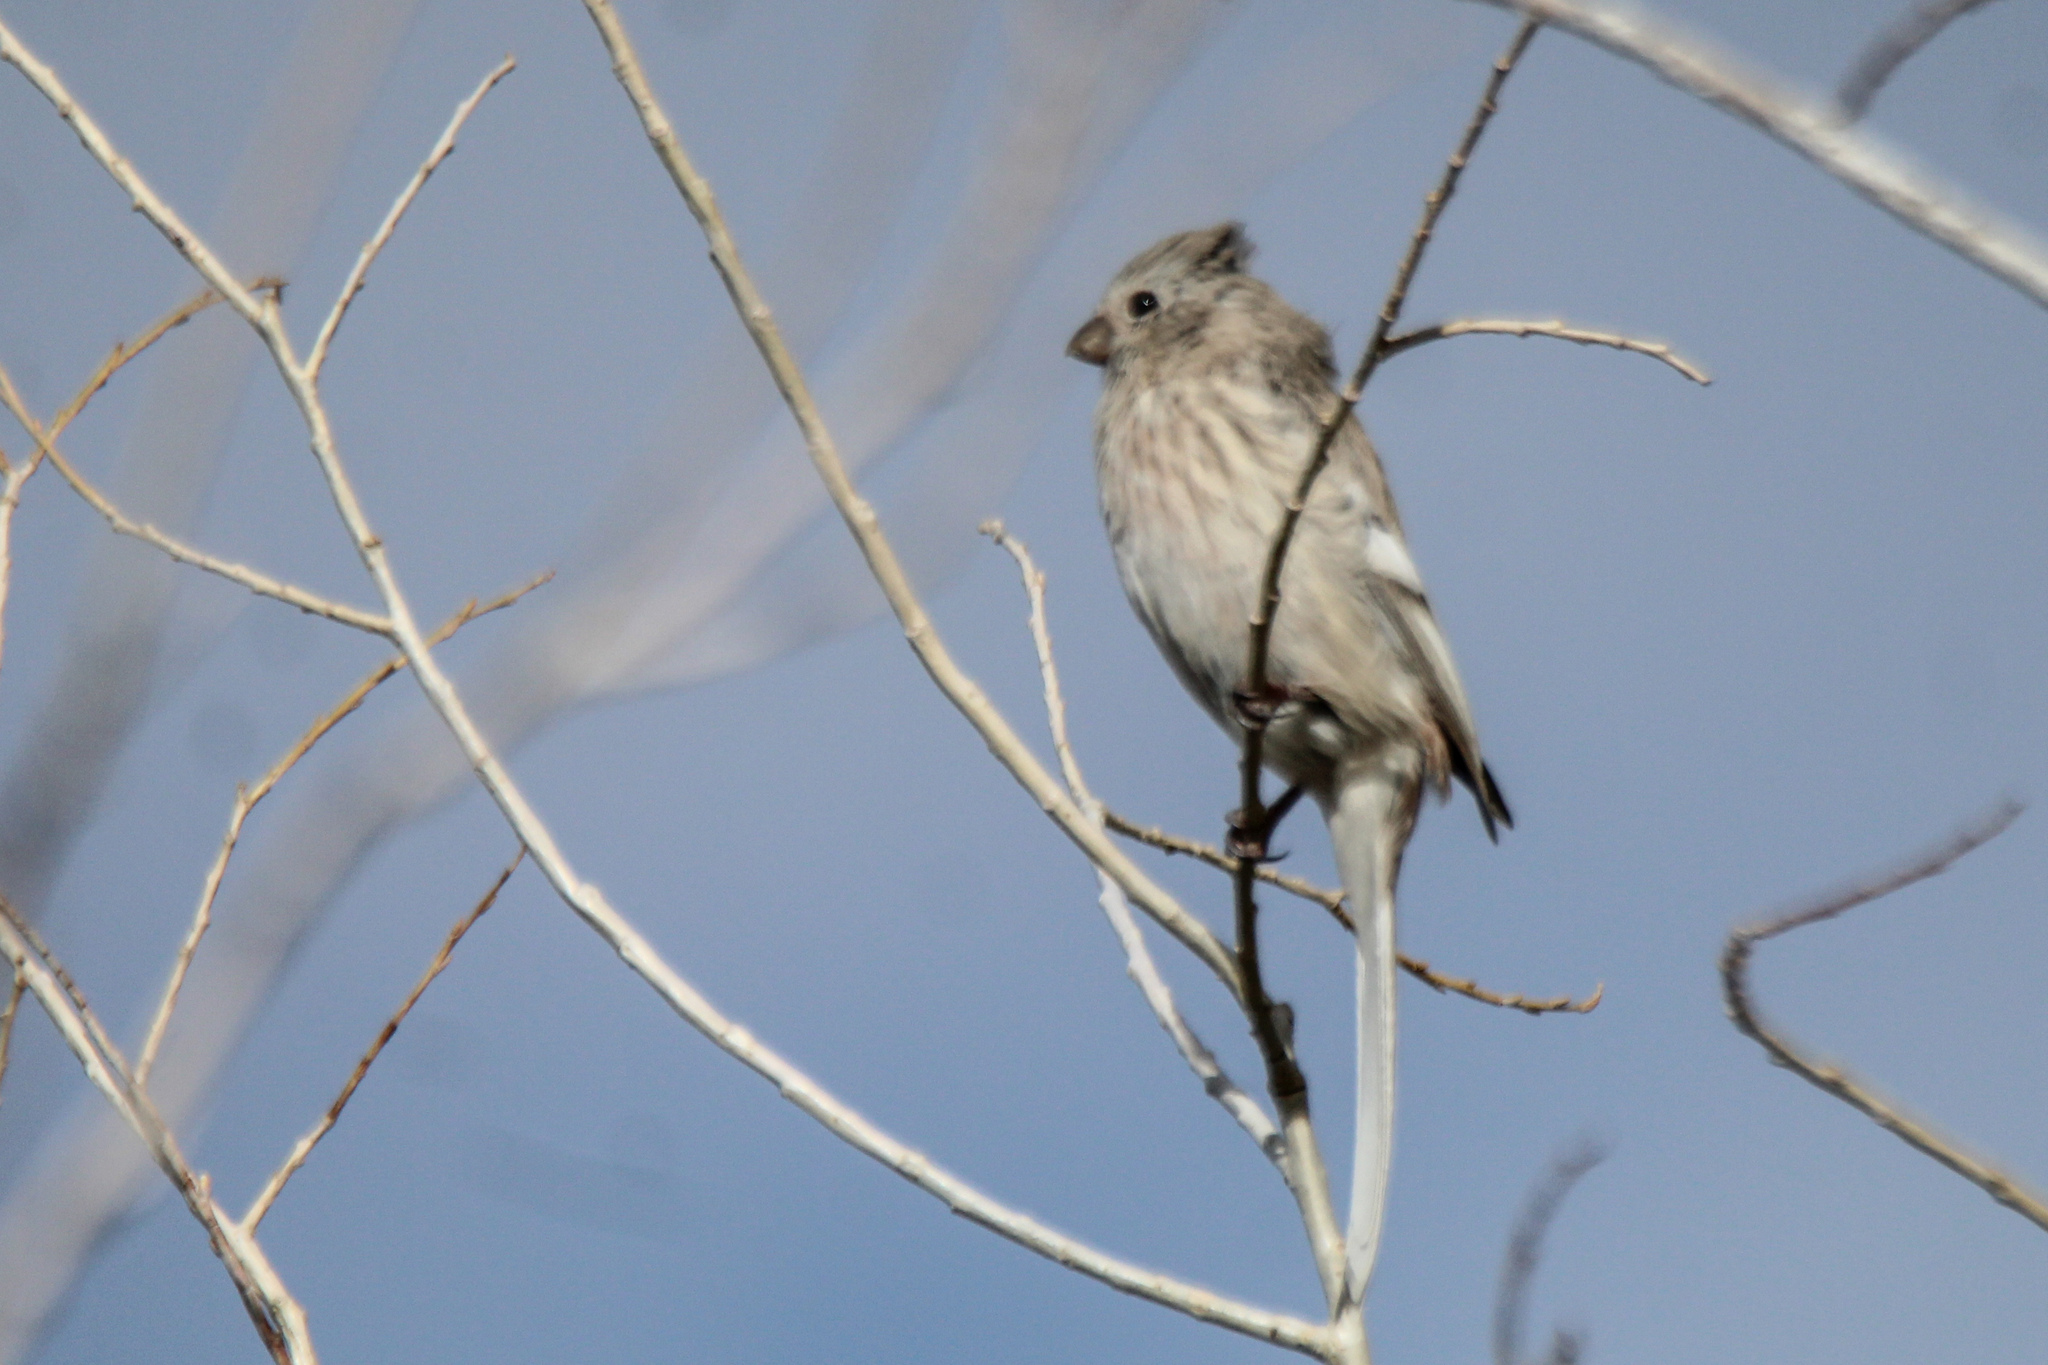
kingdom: Animalia
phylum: Chordata
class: Aves
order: Passeriformes
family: Fringillidae
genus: Carpodacus
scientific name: Carpodacus sibiricus
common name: Long-tailed rosefinch
